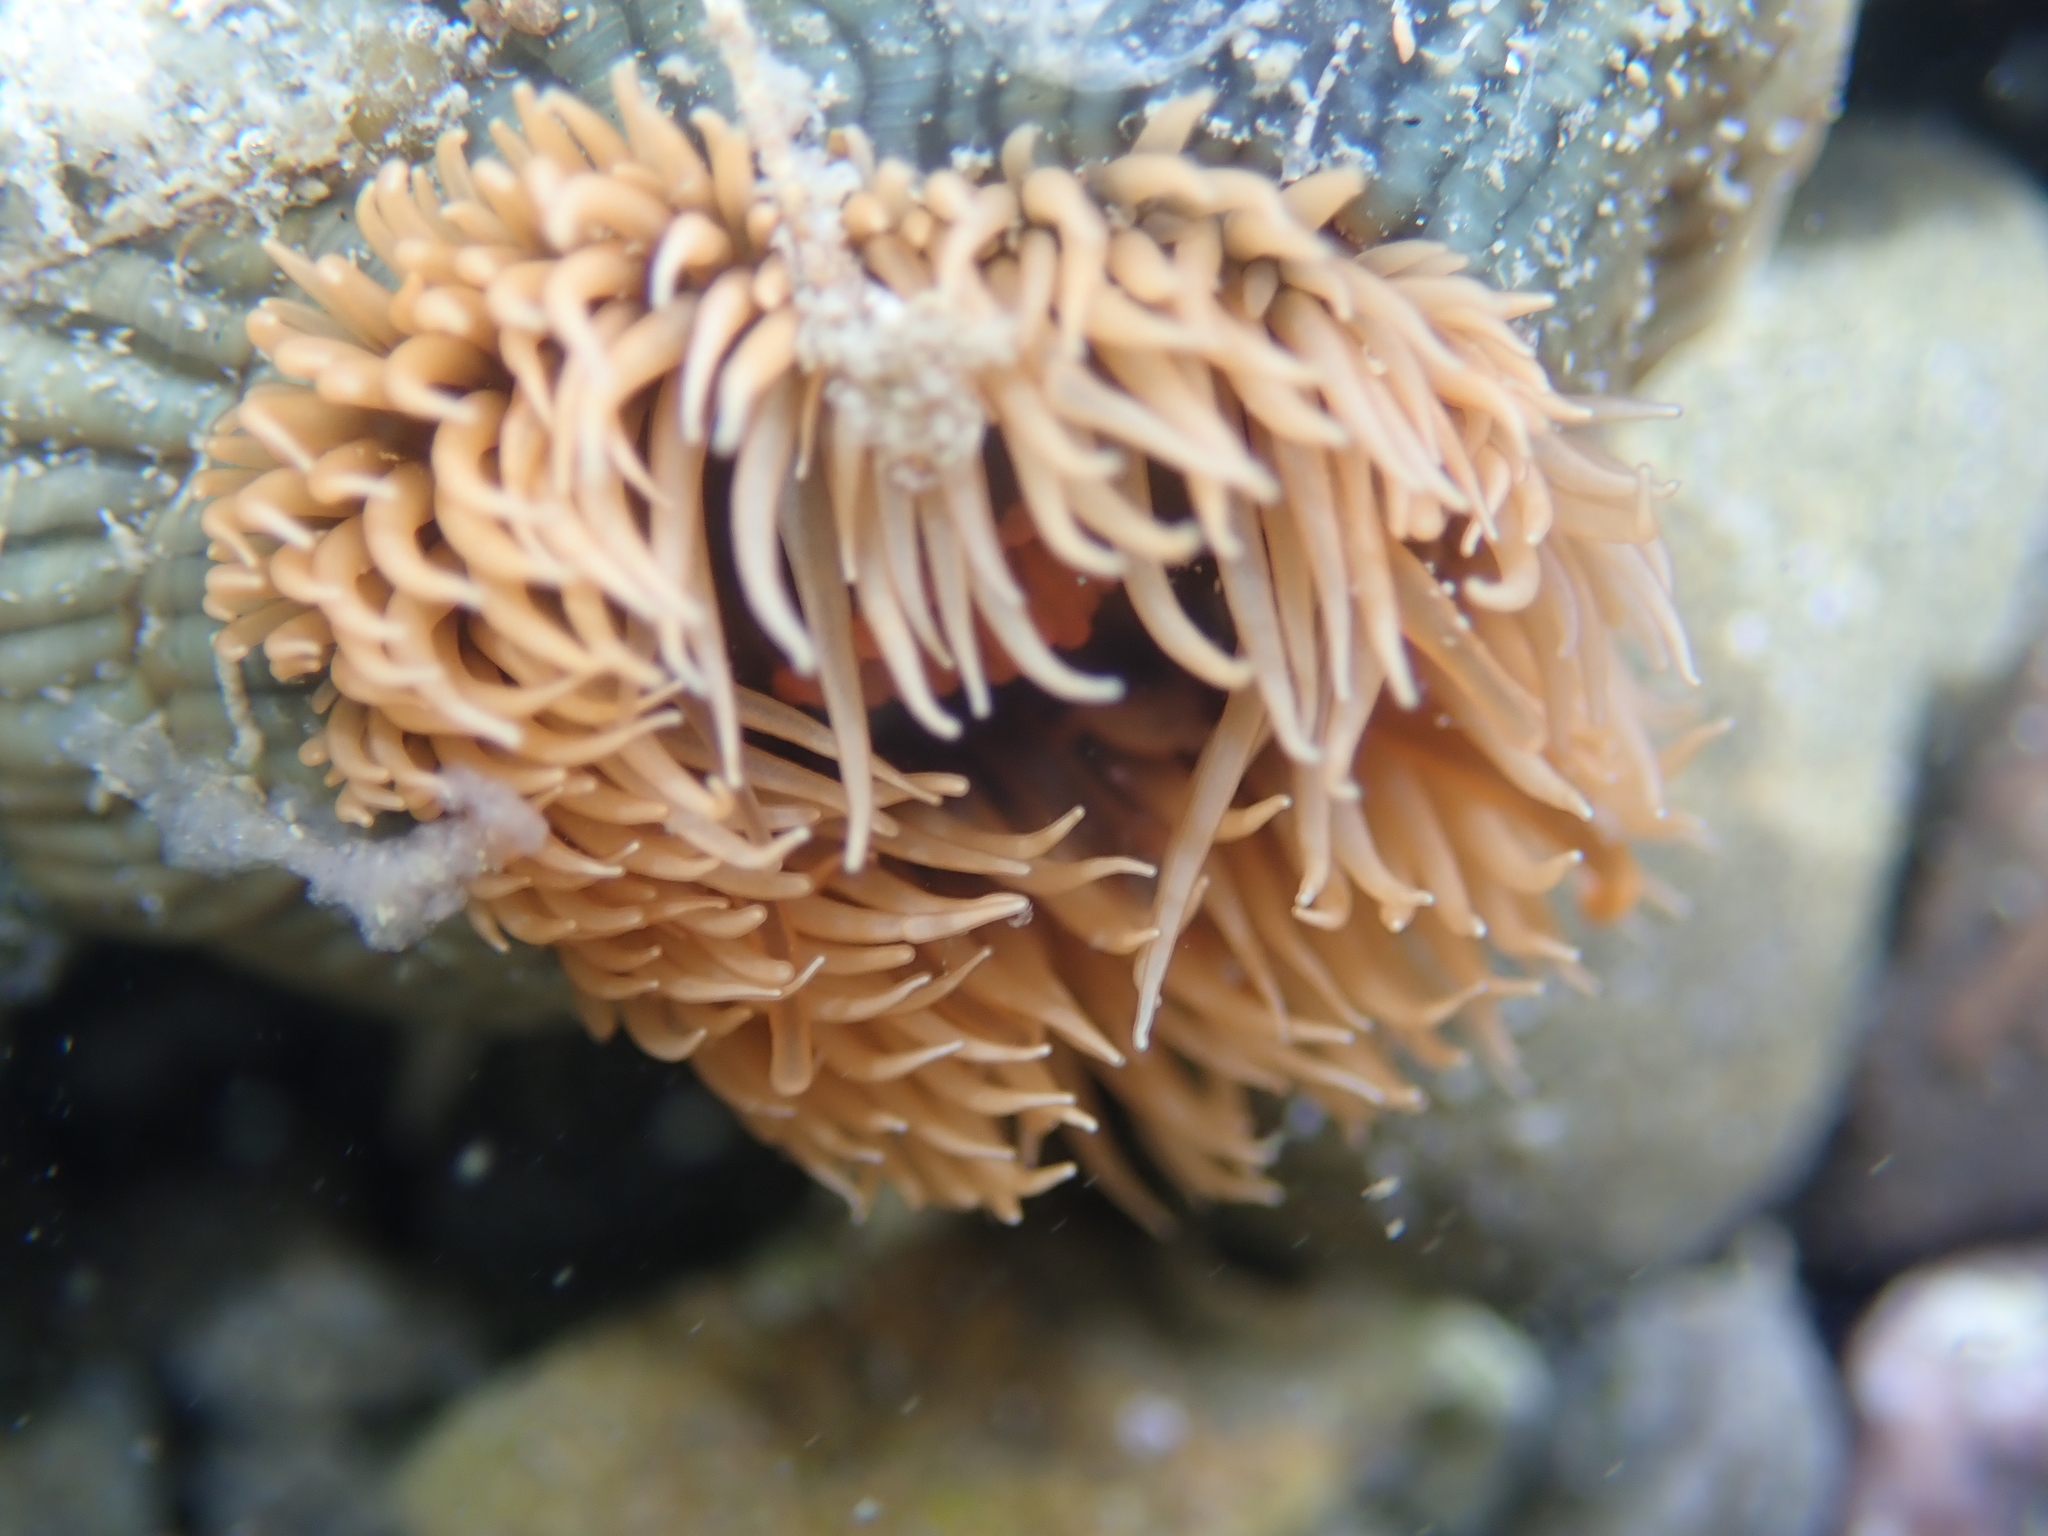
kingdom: Animalia
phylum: Cnidaria
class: Anthozoa
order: Actiniaria
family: Diadumenidae
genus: Diadumene
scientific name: Diadumene neozelanica
